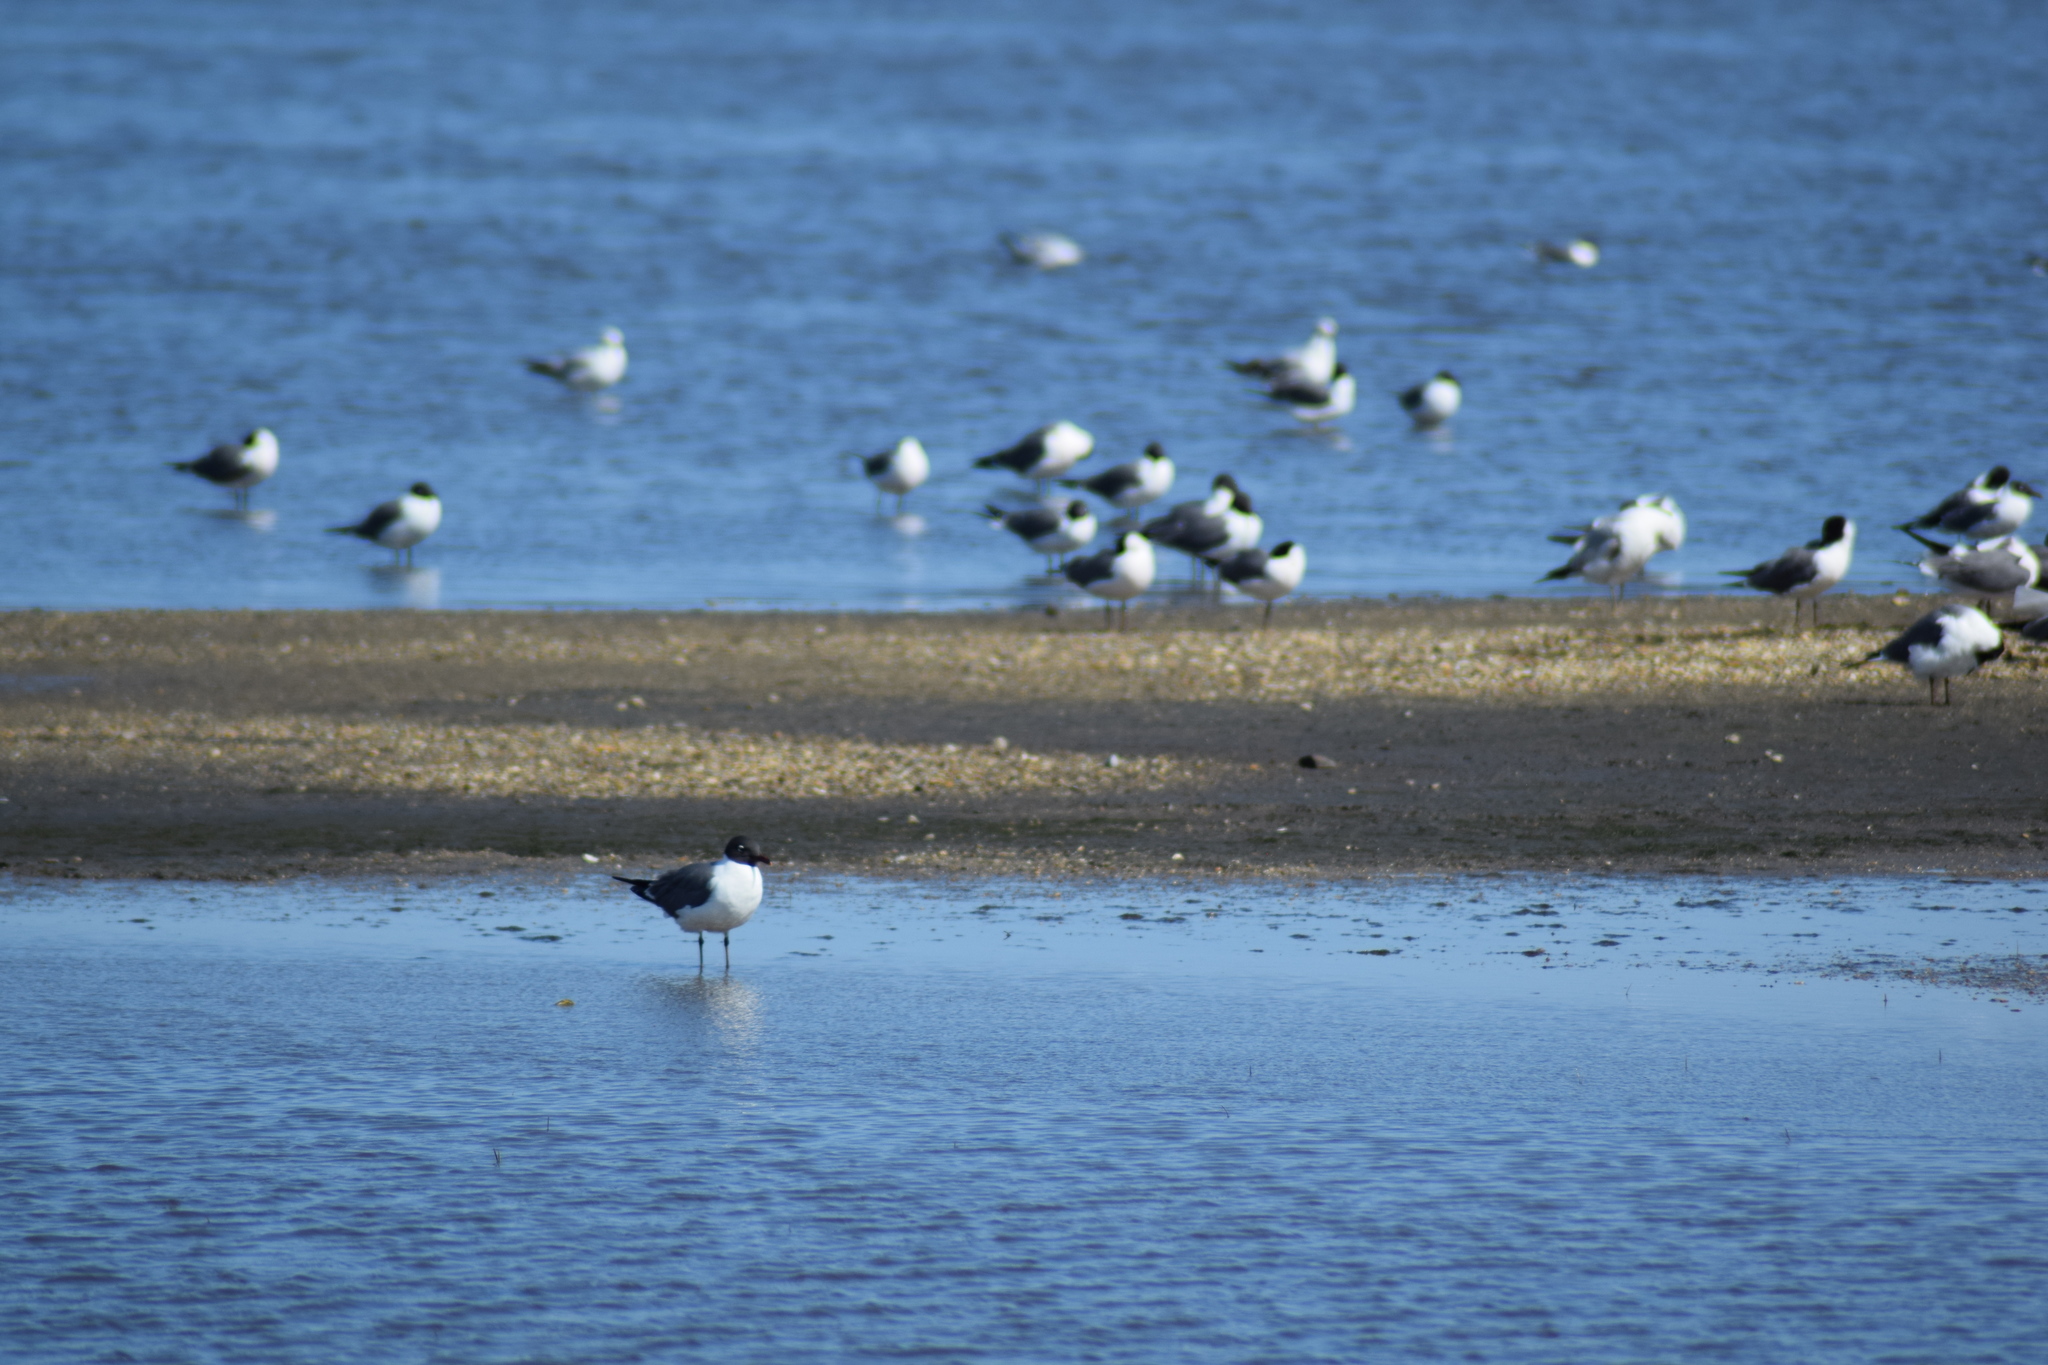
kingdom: Animalia
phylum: Chordata
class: Aves
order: Charadriiformes
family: Laridae
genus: Leucophaeus
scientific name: Leucophaeus atricilla
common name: Laughing gull
